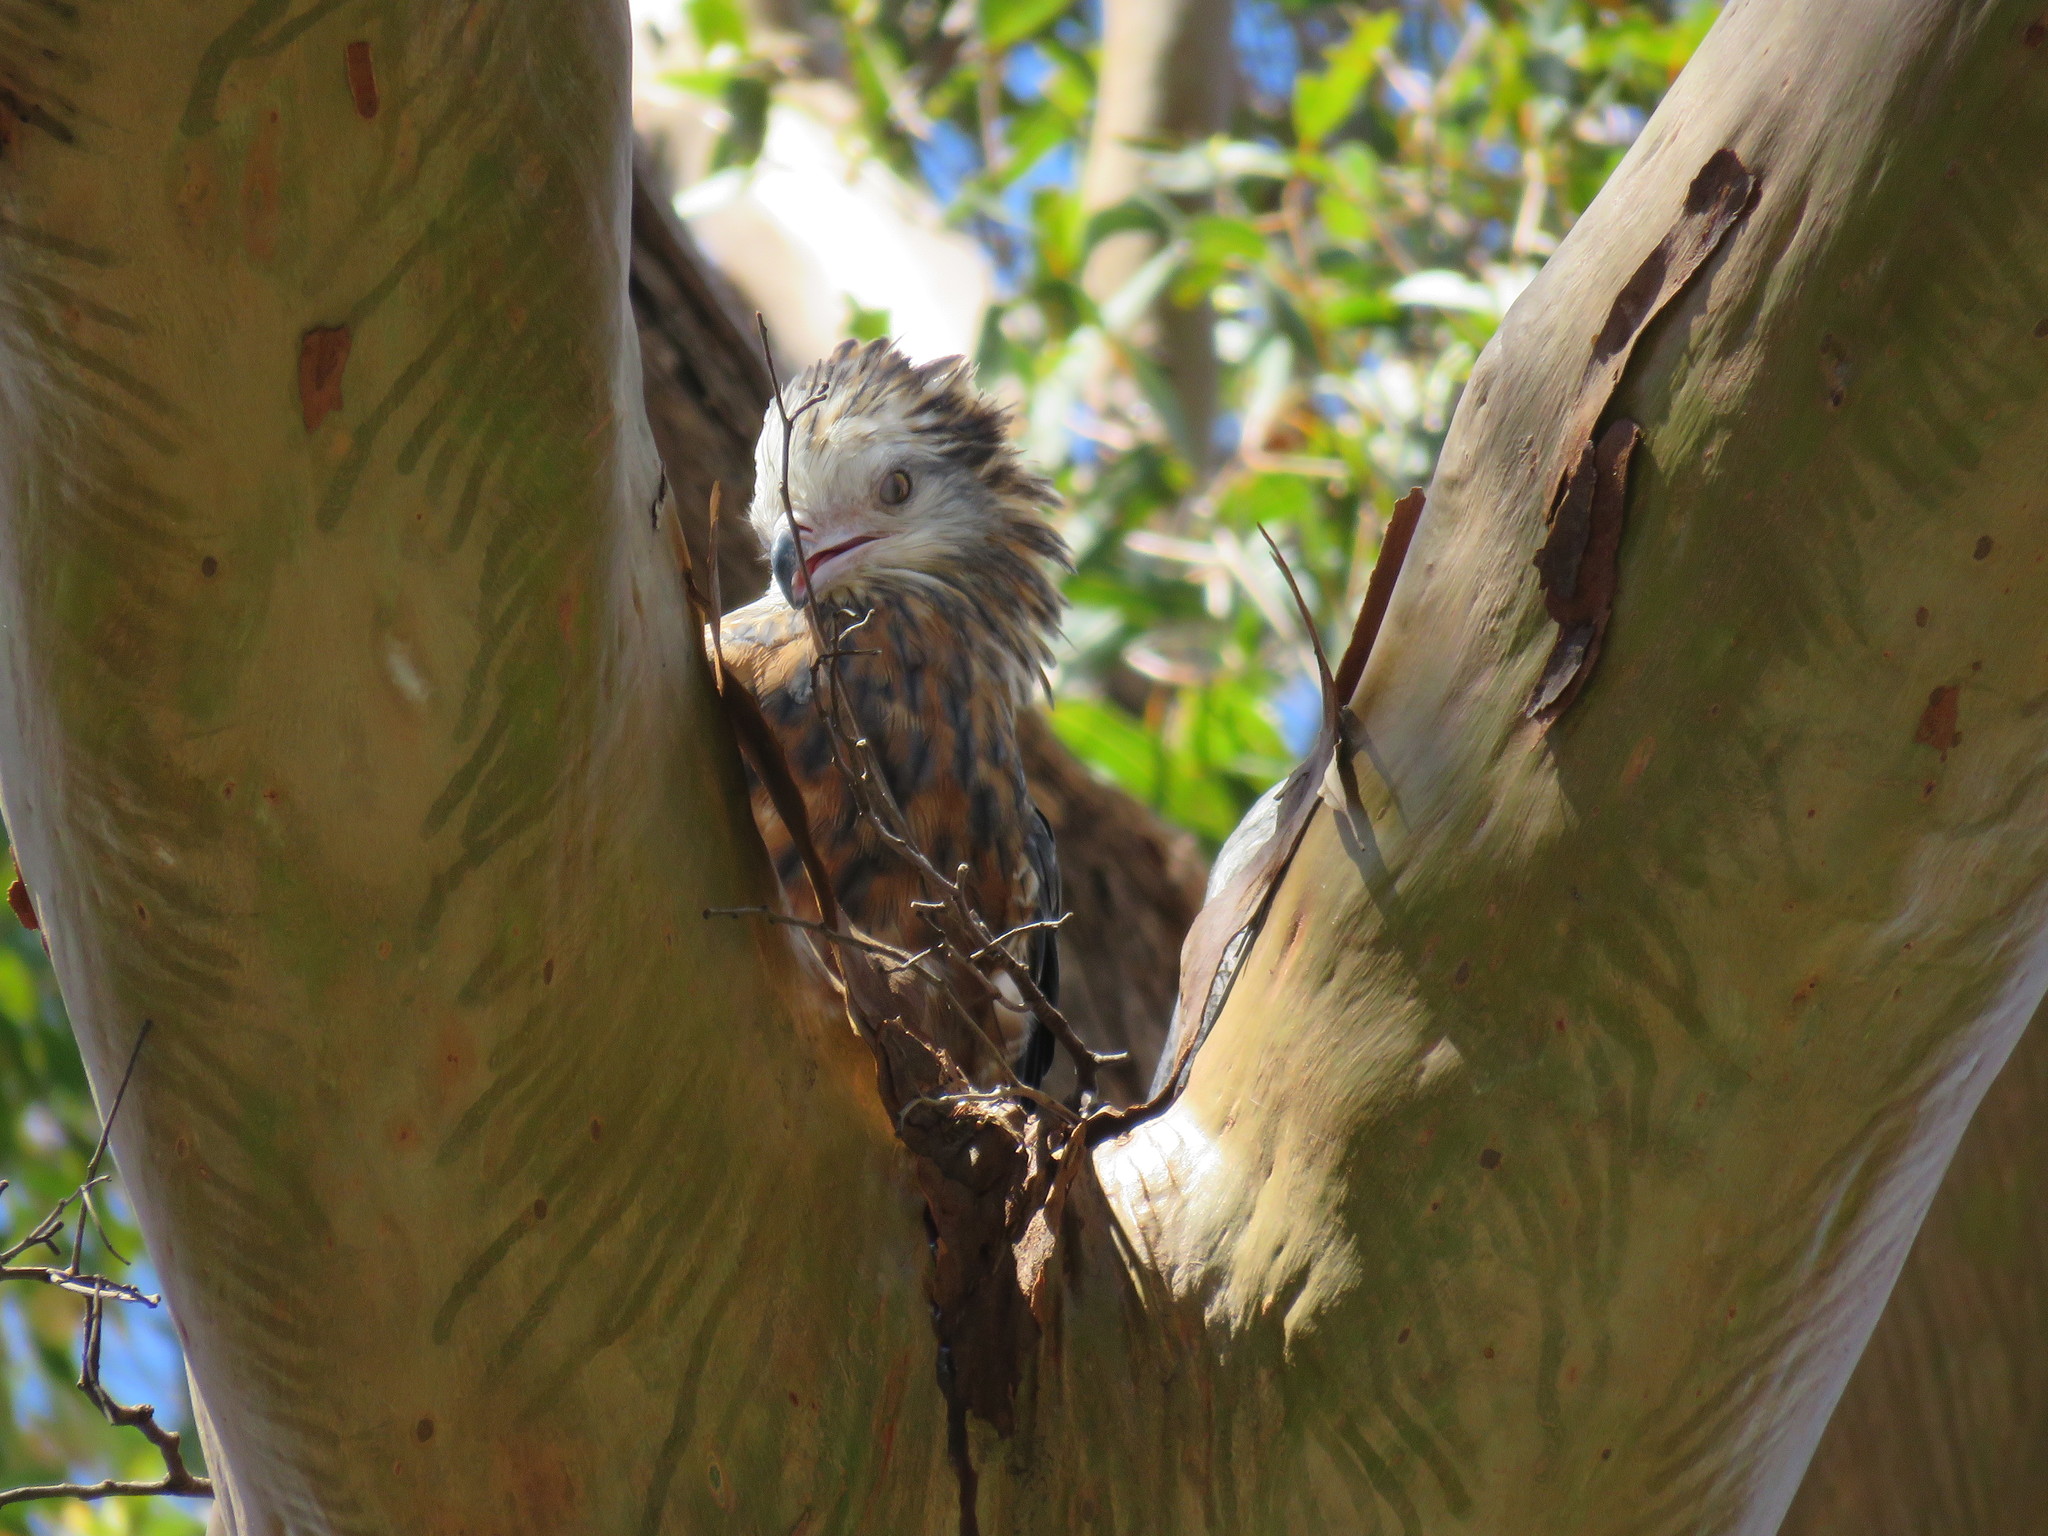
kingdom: Animalia
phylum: Chordata
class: Aves
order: Accipitriformes
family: Accipitridae
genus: Lophoictinia
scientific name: Lophoictinia isura
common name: Square-tailed kite
